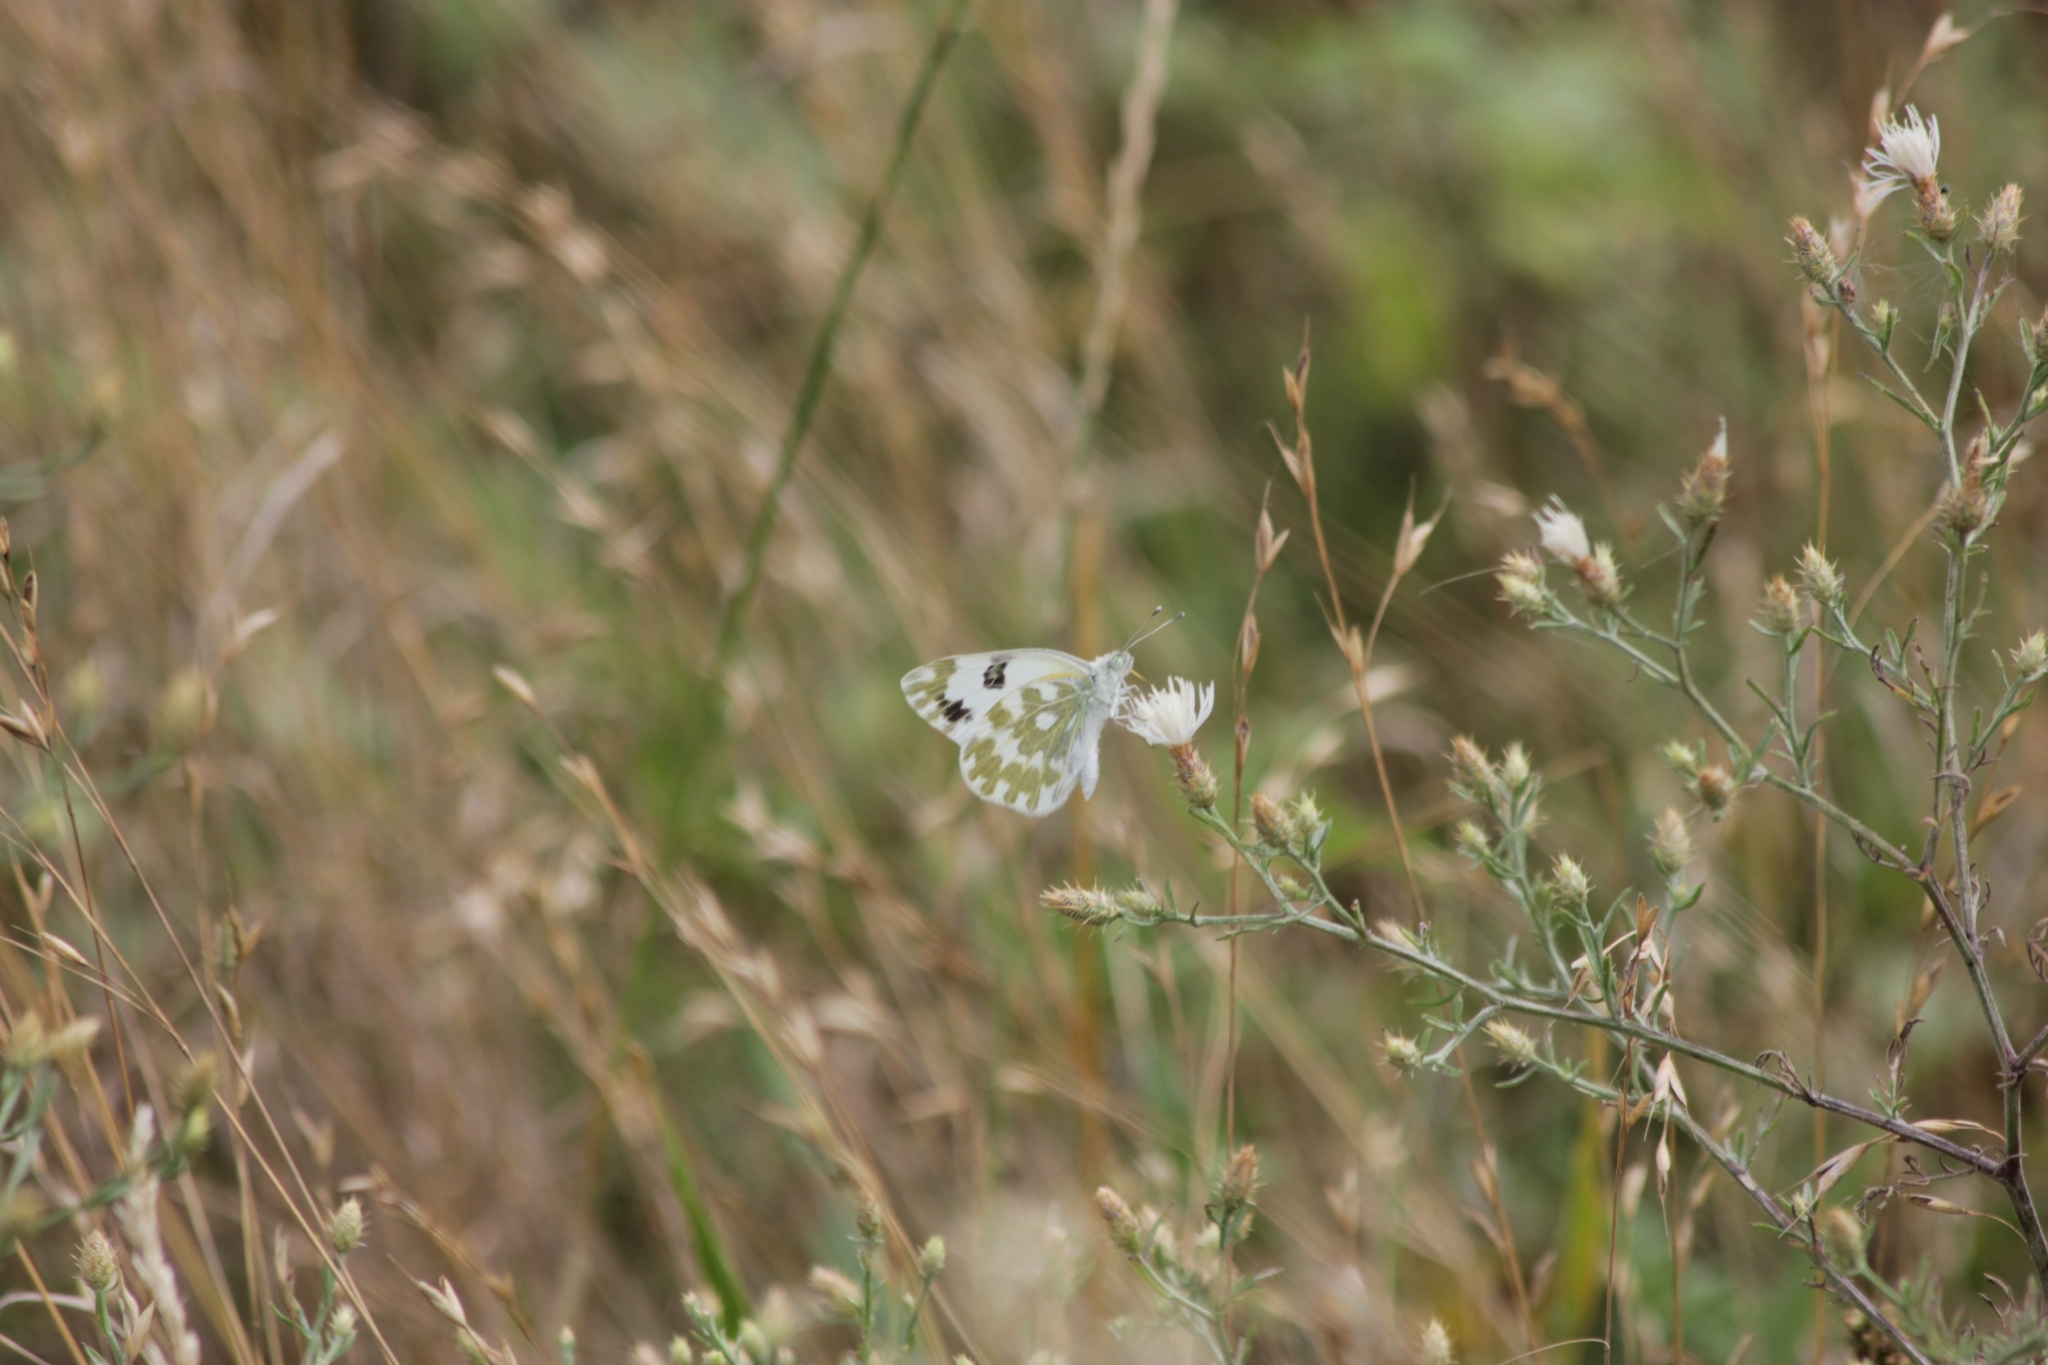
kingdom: Animalia
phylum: Arthropoda
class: Insecta
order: Lepidoptera
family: Pieridae
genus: Pontia
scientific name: Pontia edusa
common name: Eastern bath white
